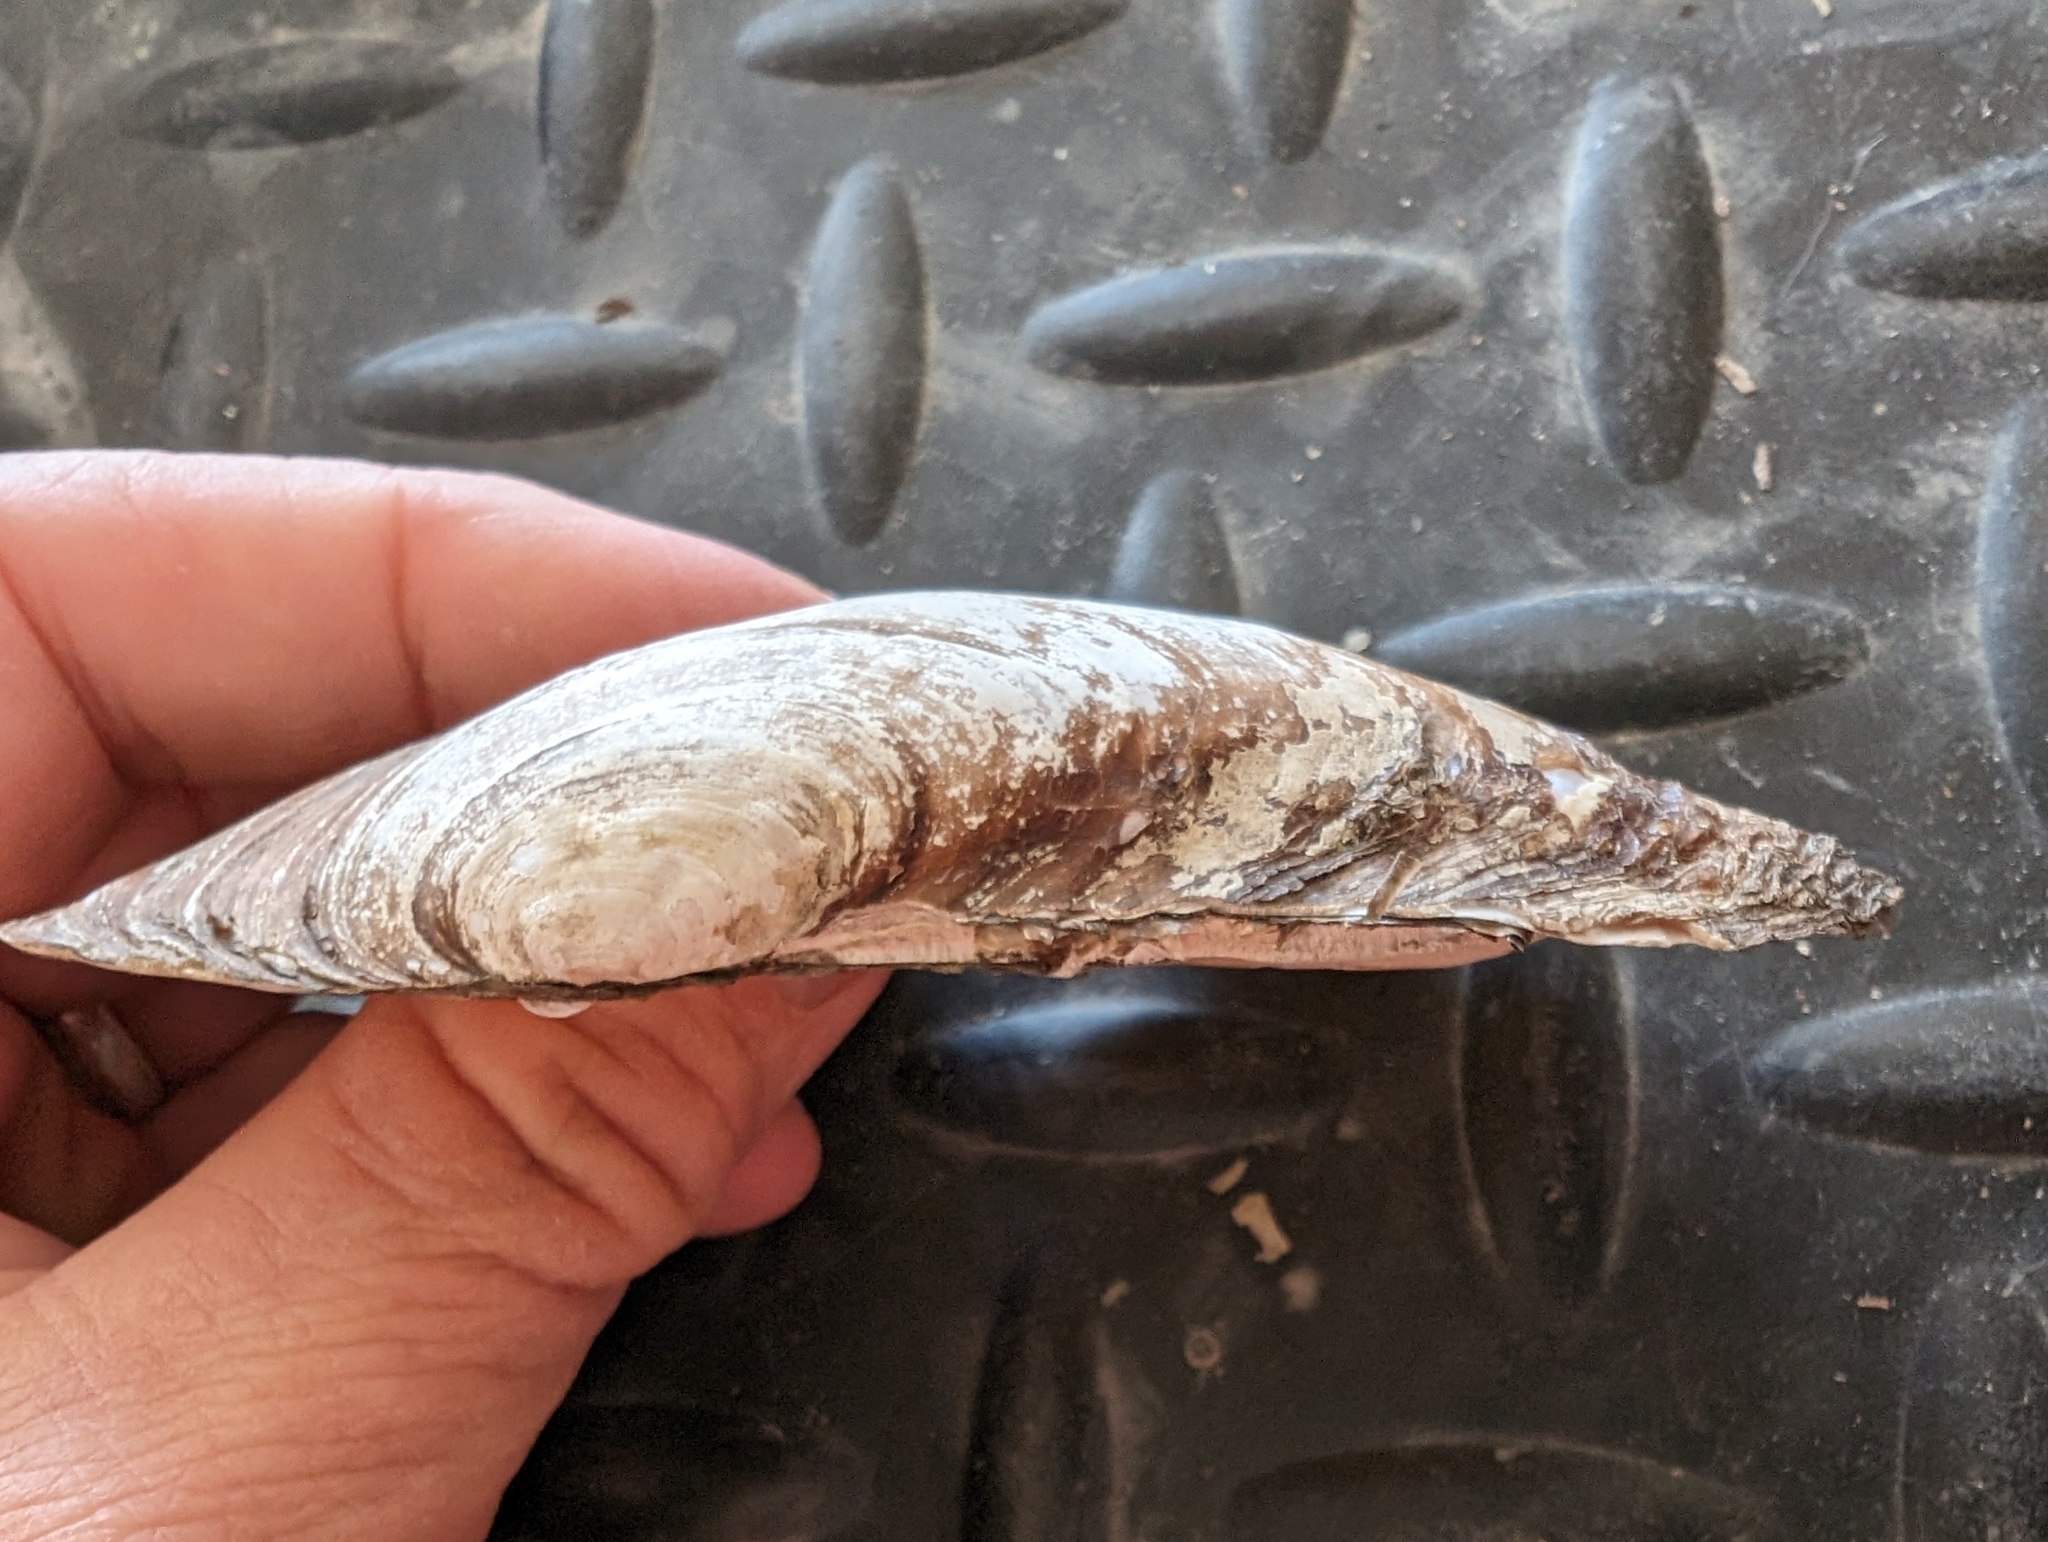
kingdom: Animalia
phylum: Mollusca
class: Bivalvia
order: Unionida
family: Unionidae
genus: Potamilus
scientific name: Potamilus fragilis
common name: Fragile papershell
